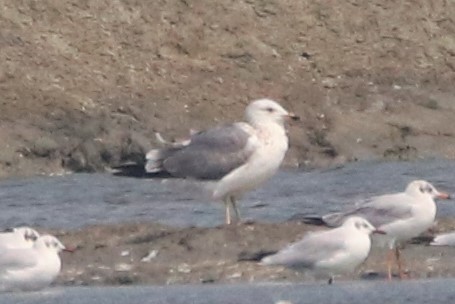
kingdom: Animalia
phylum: Chordata
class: Aves
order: Charadriiformes
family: Laridae
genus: Larus
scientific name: Larus fuscus
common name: Lesser black-backed gull
